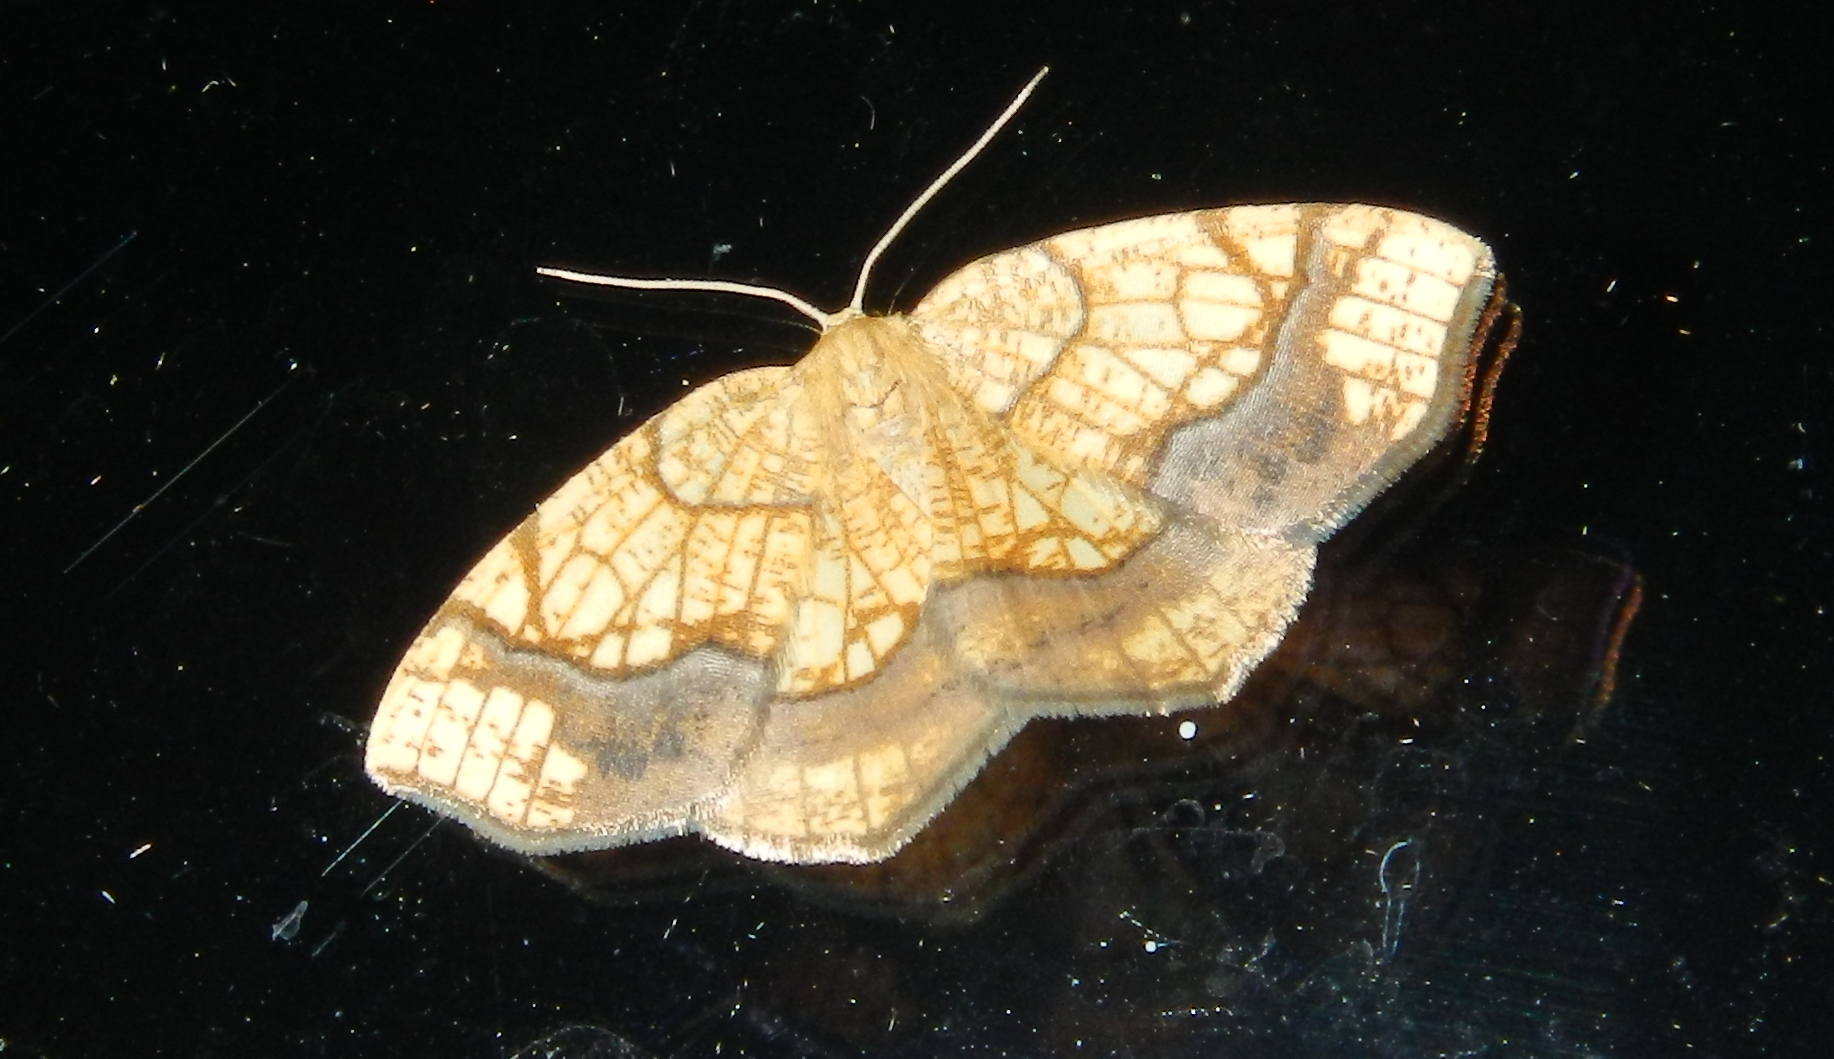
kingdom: Animalia
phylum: Arthropoda
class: Insecta
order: Lepidoptera
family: Geometridae
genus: Nematocampa
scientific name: Nematocampa resistaria
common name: Horned spanworm moth
